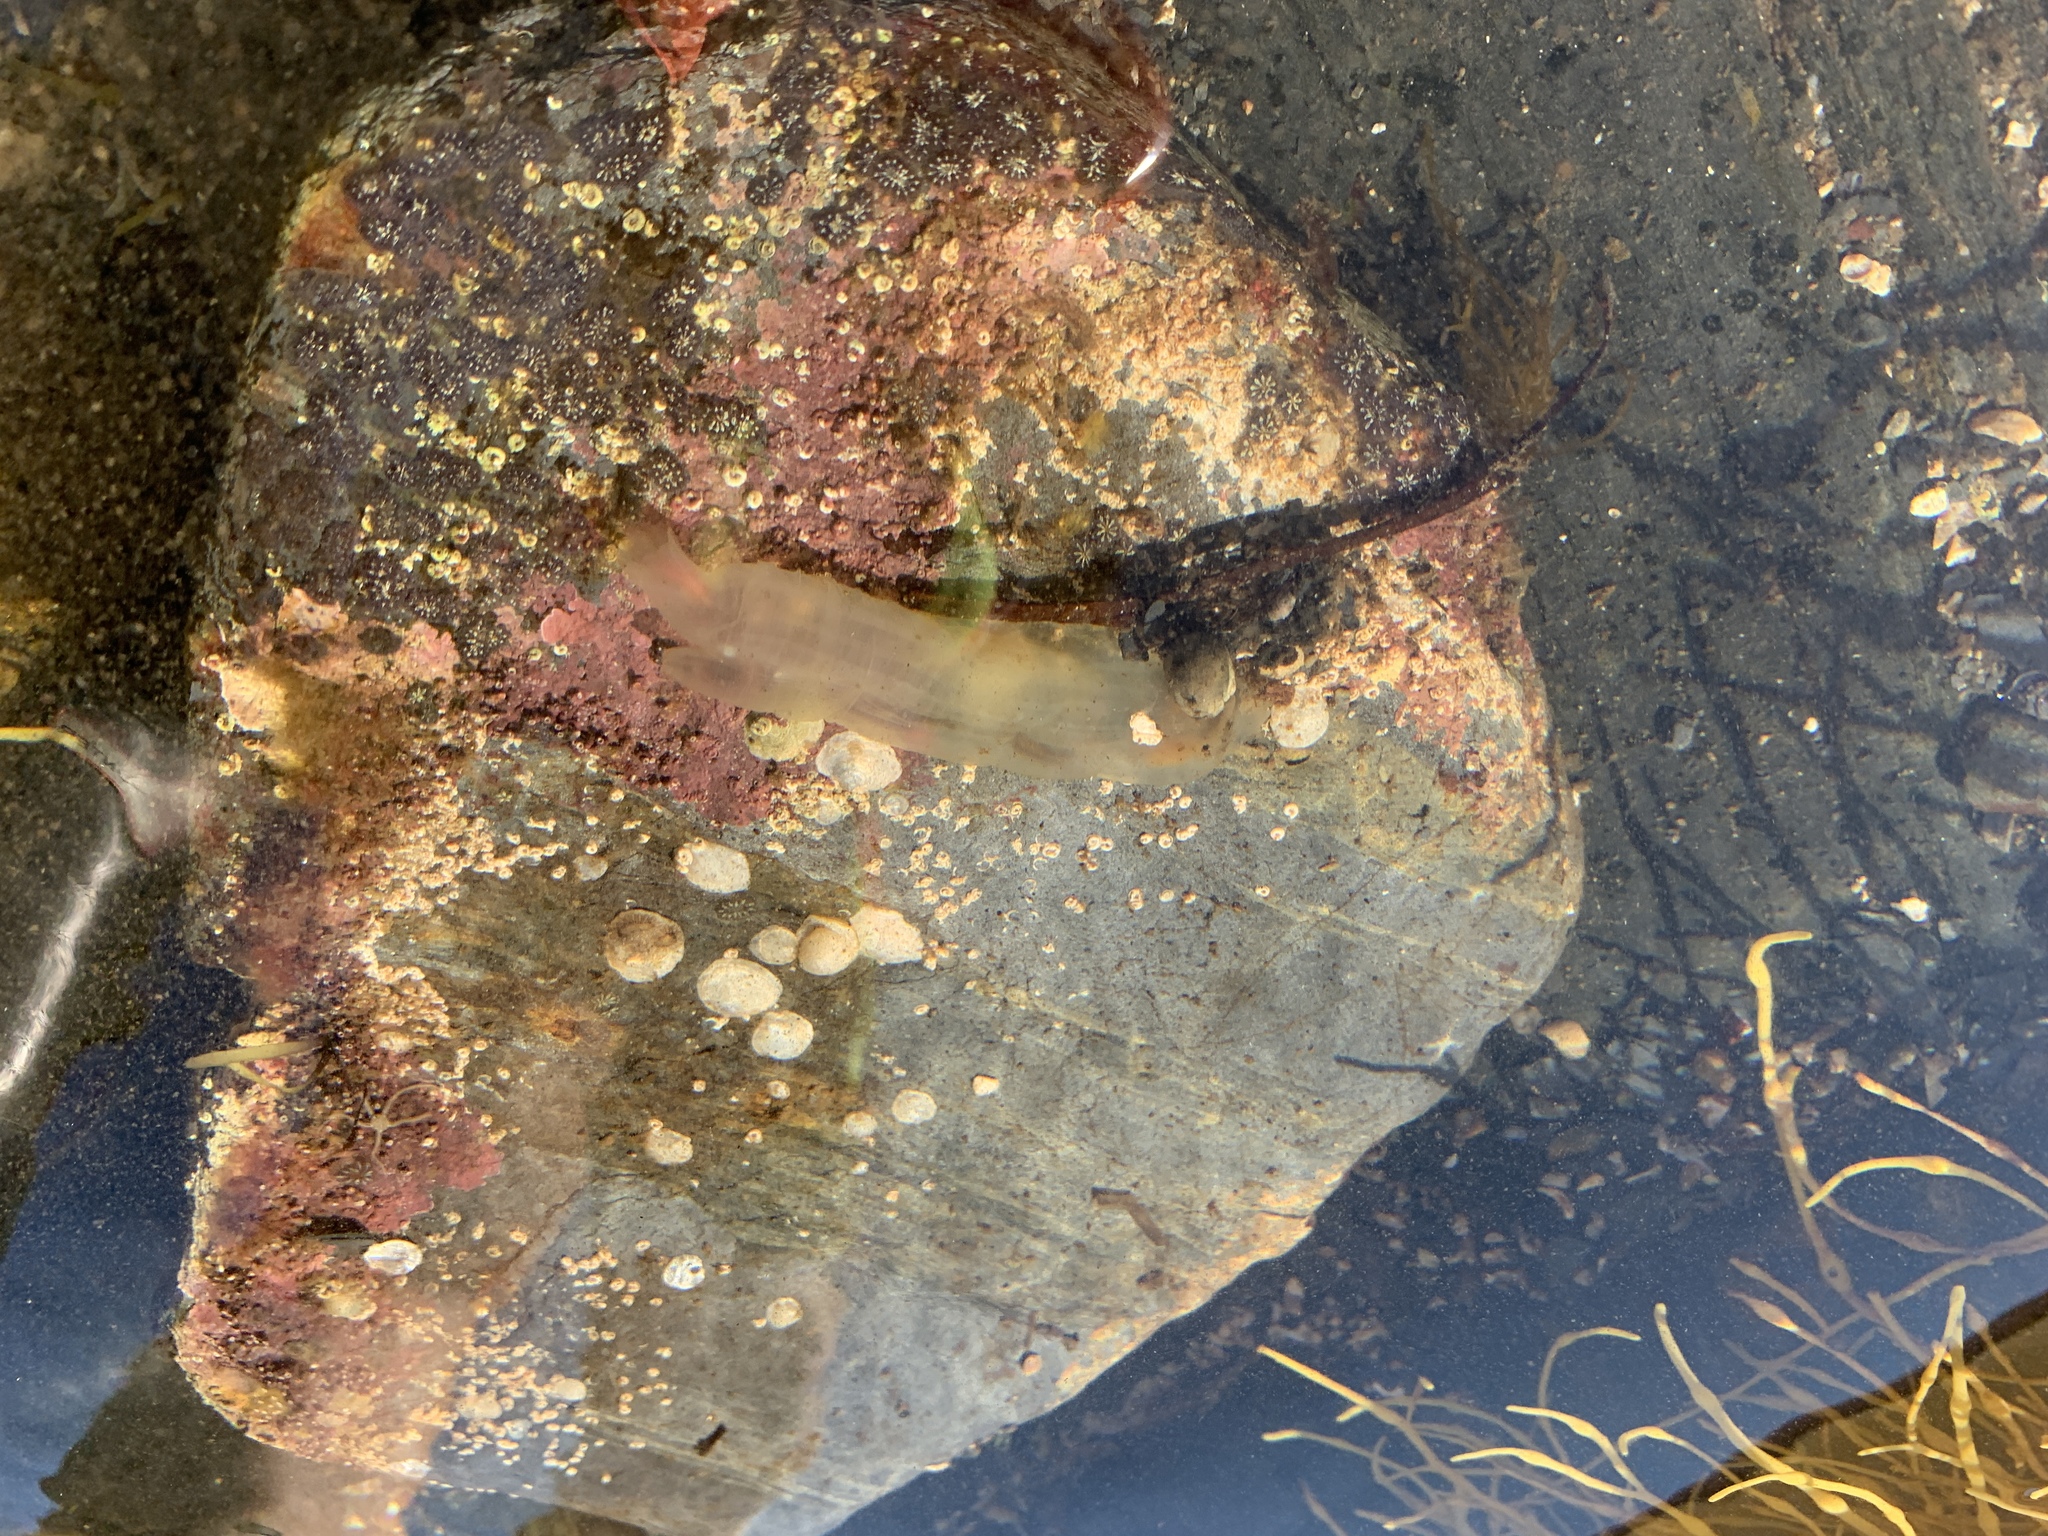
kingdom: Animalia
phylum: Chordata
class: Ascidiacea
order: Phlebobranchia
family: Cionidae
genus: Ciona
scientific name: Ciona intestinalis
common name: Vase tunicate
